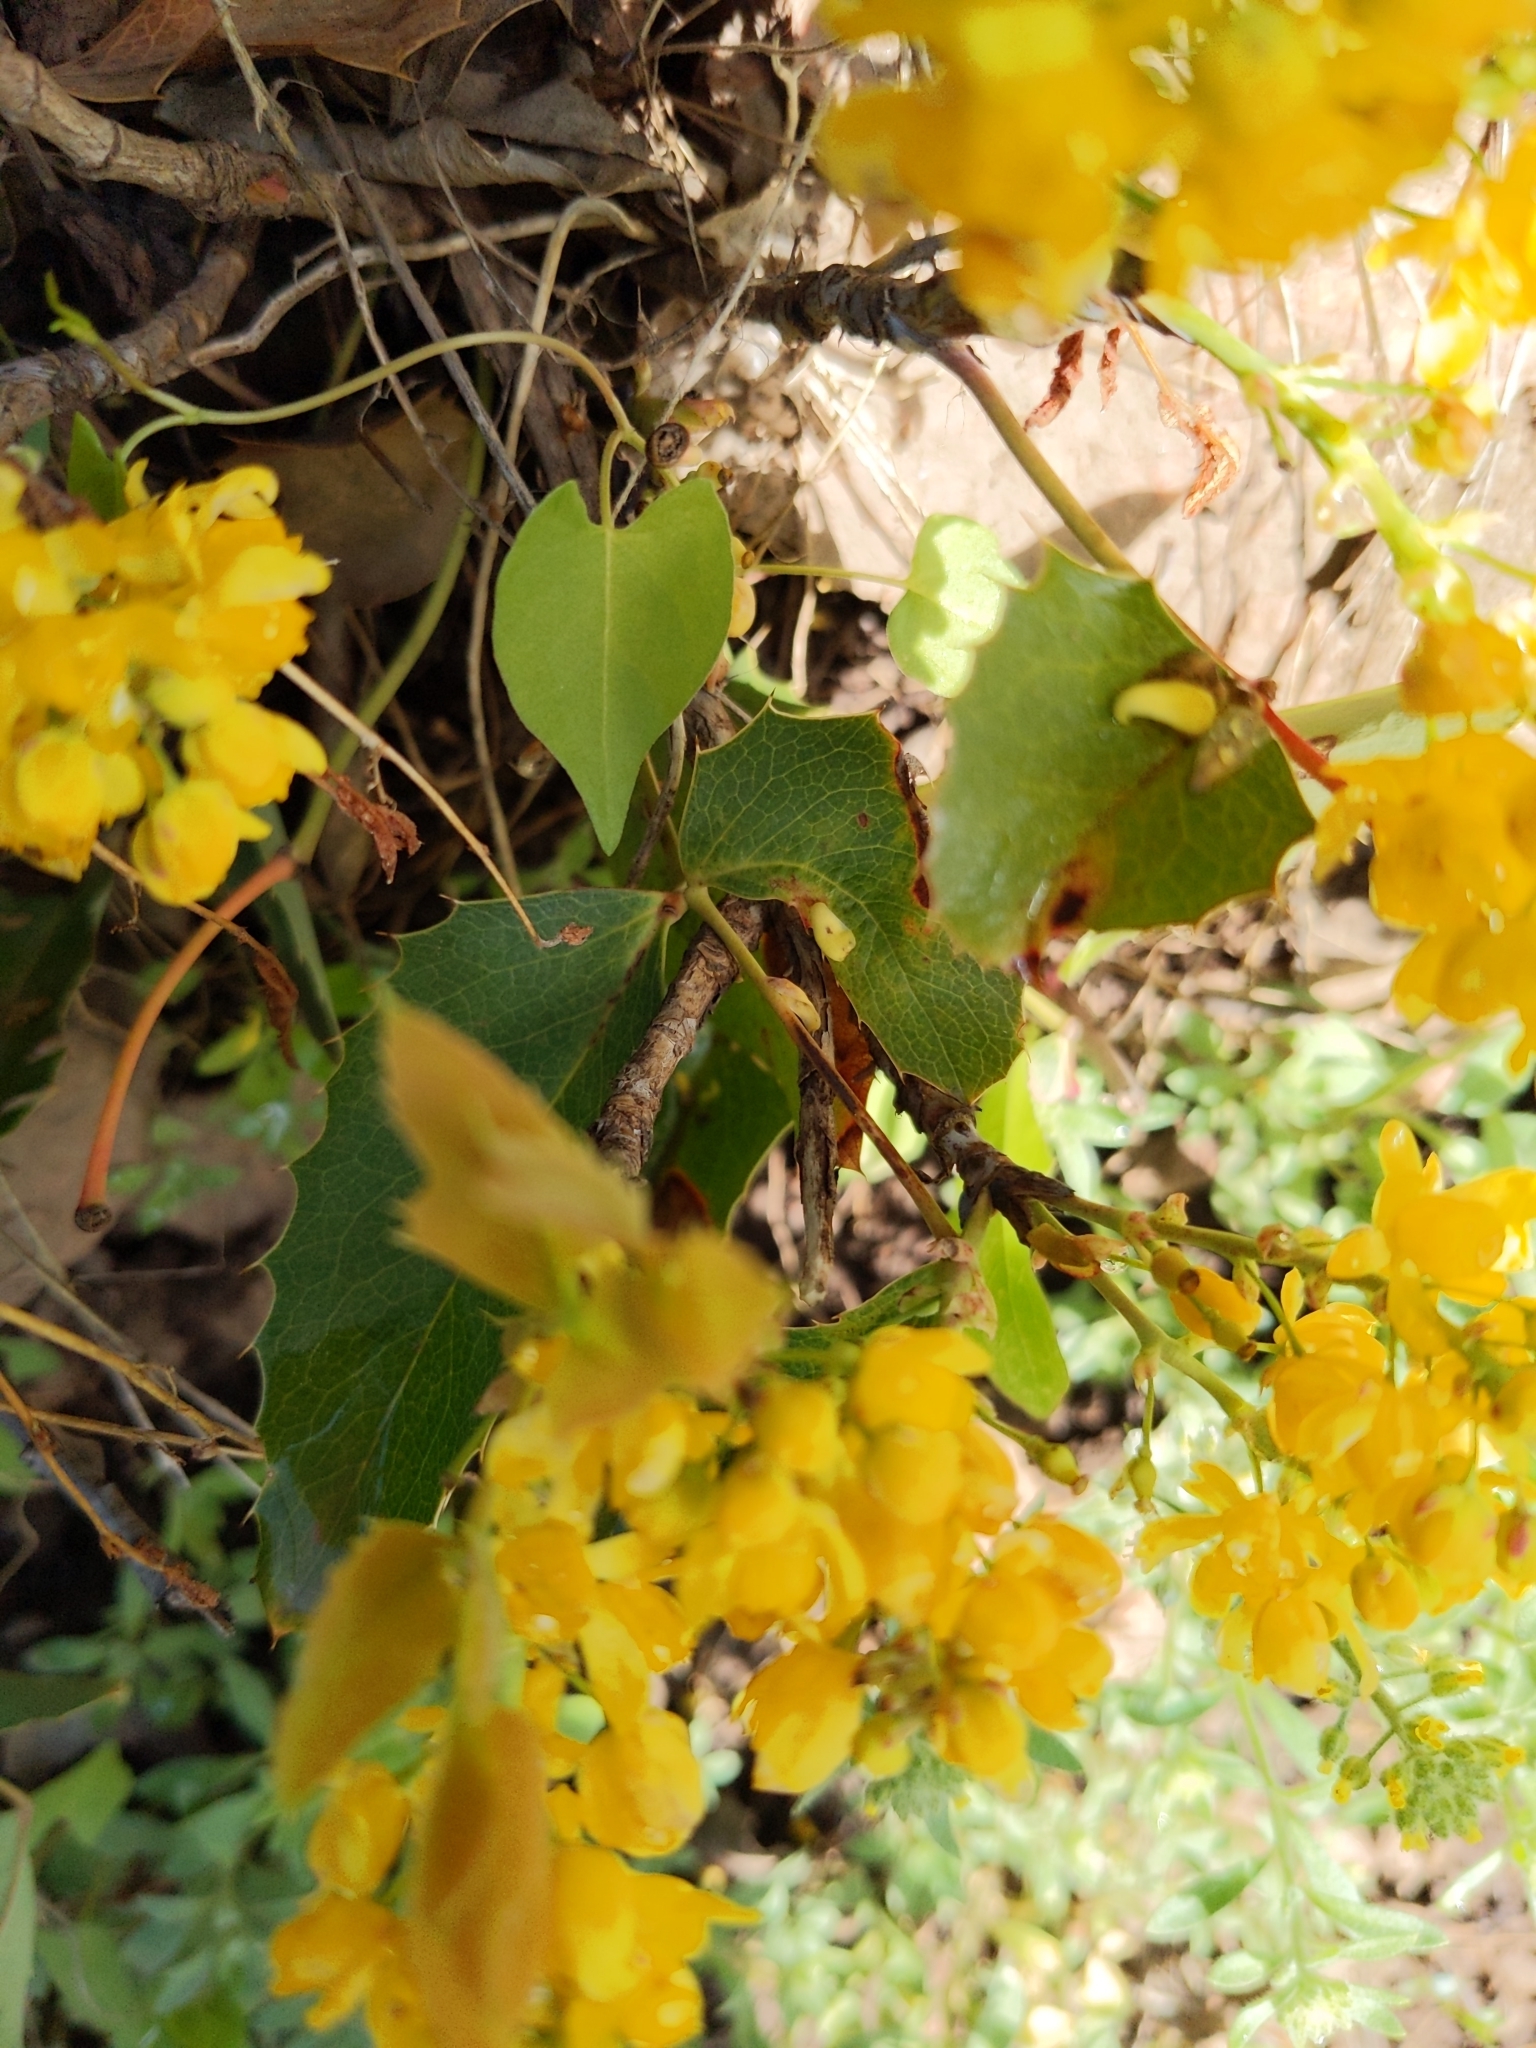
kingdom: Plantae
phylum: Tracheophyta
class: Magnoliopsida
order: Ranunculales
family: Berberidaceae
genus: Mahonia
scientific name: Mahonia repens
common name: Creeping oregon-grape
